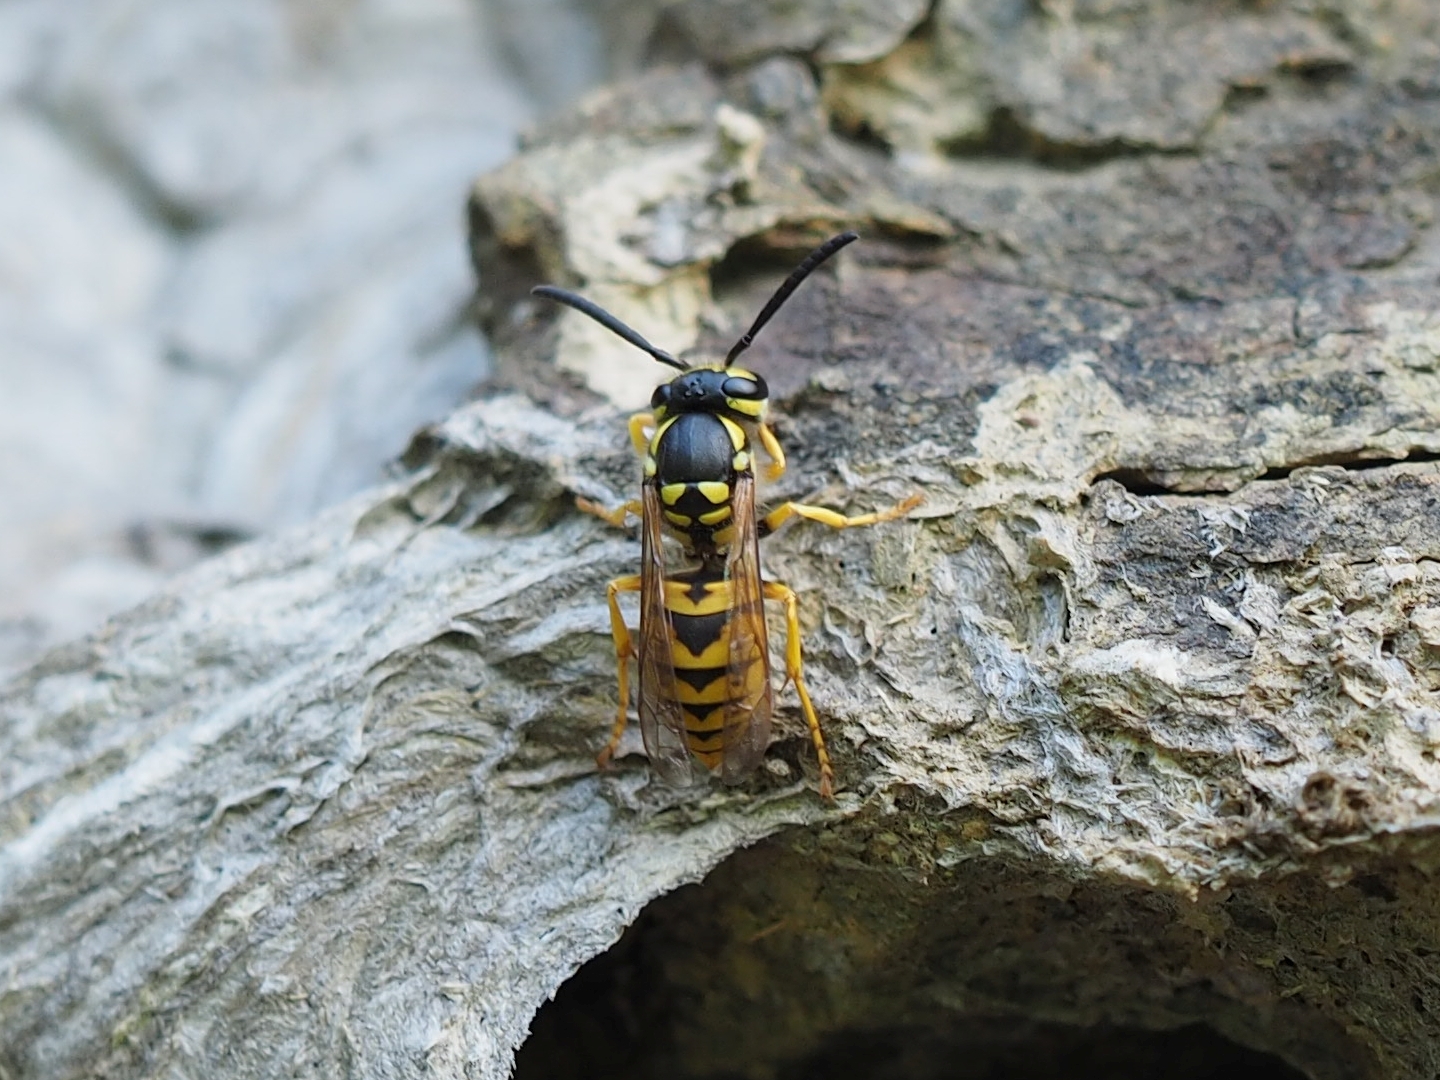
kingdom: Animalia
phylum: Arthropoda
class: Insecta
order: Hymenoptera
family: Vespidae
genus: Vespula
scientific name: Vespula germanica
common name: German wasp
